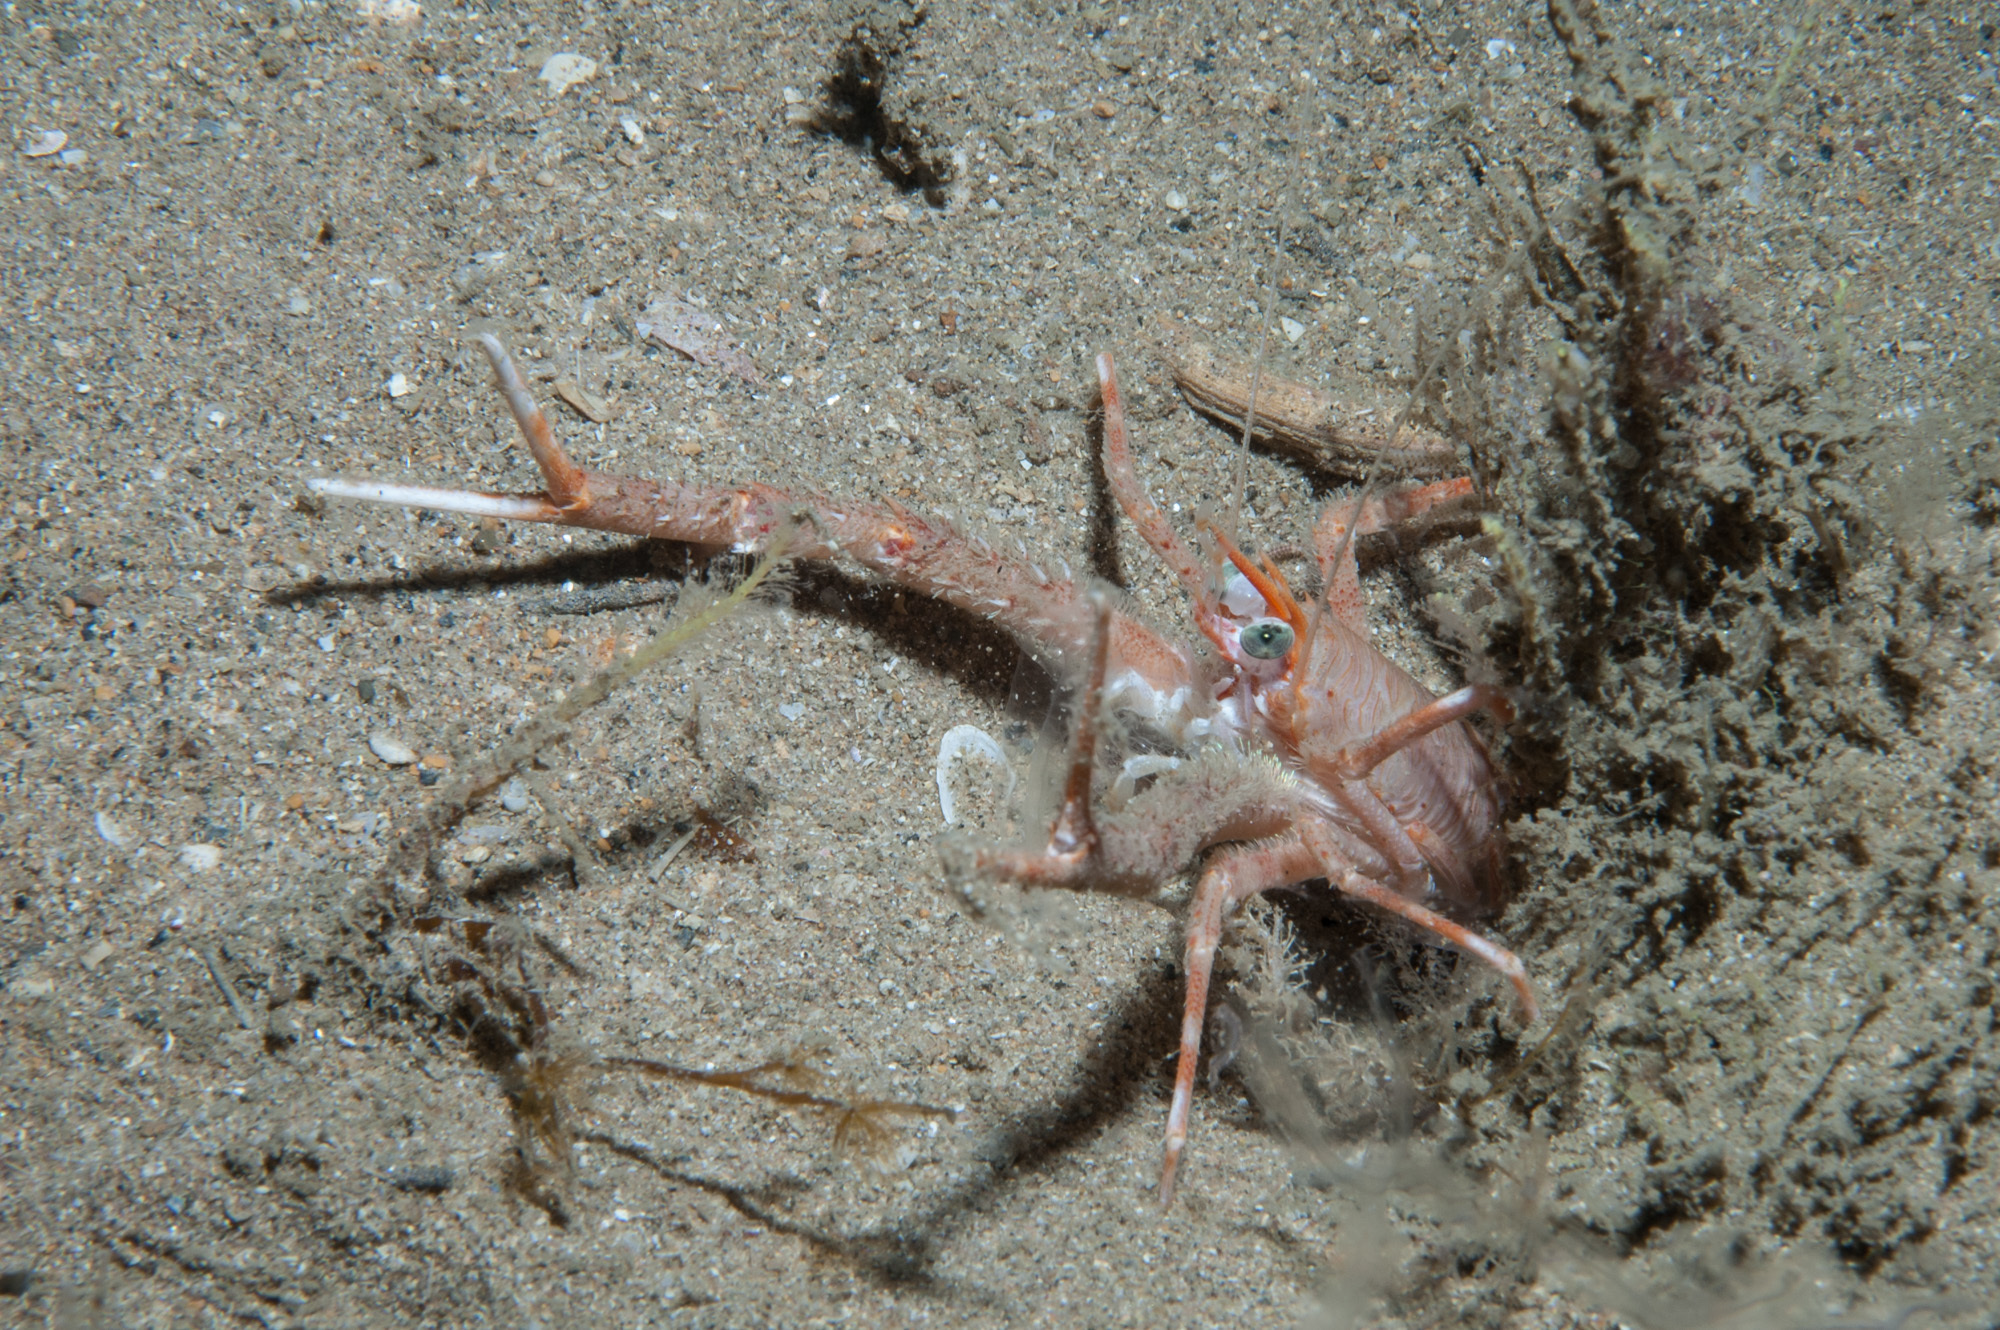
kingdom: Animalia
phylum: Arthropoda
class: Malacostraca
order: Decapoda
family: Munididae
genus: Munida
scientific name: Munida rugosa
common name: Rugose squat lobster
